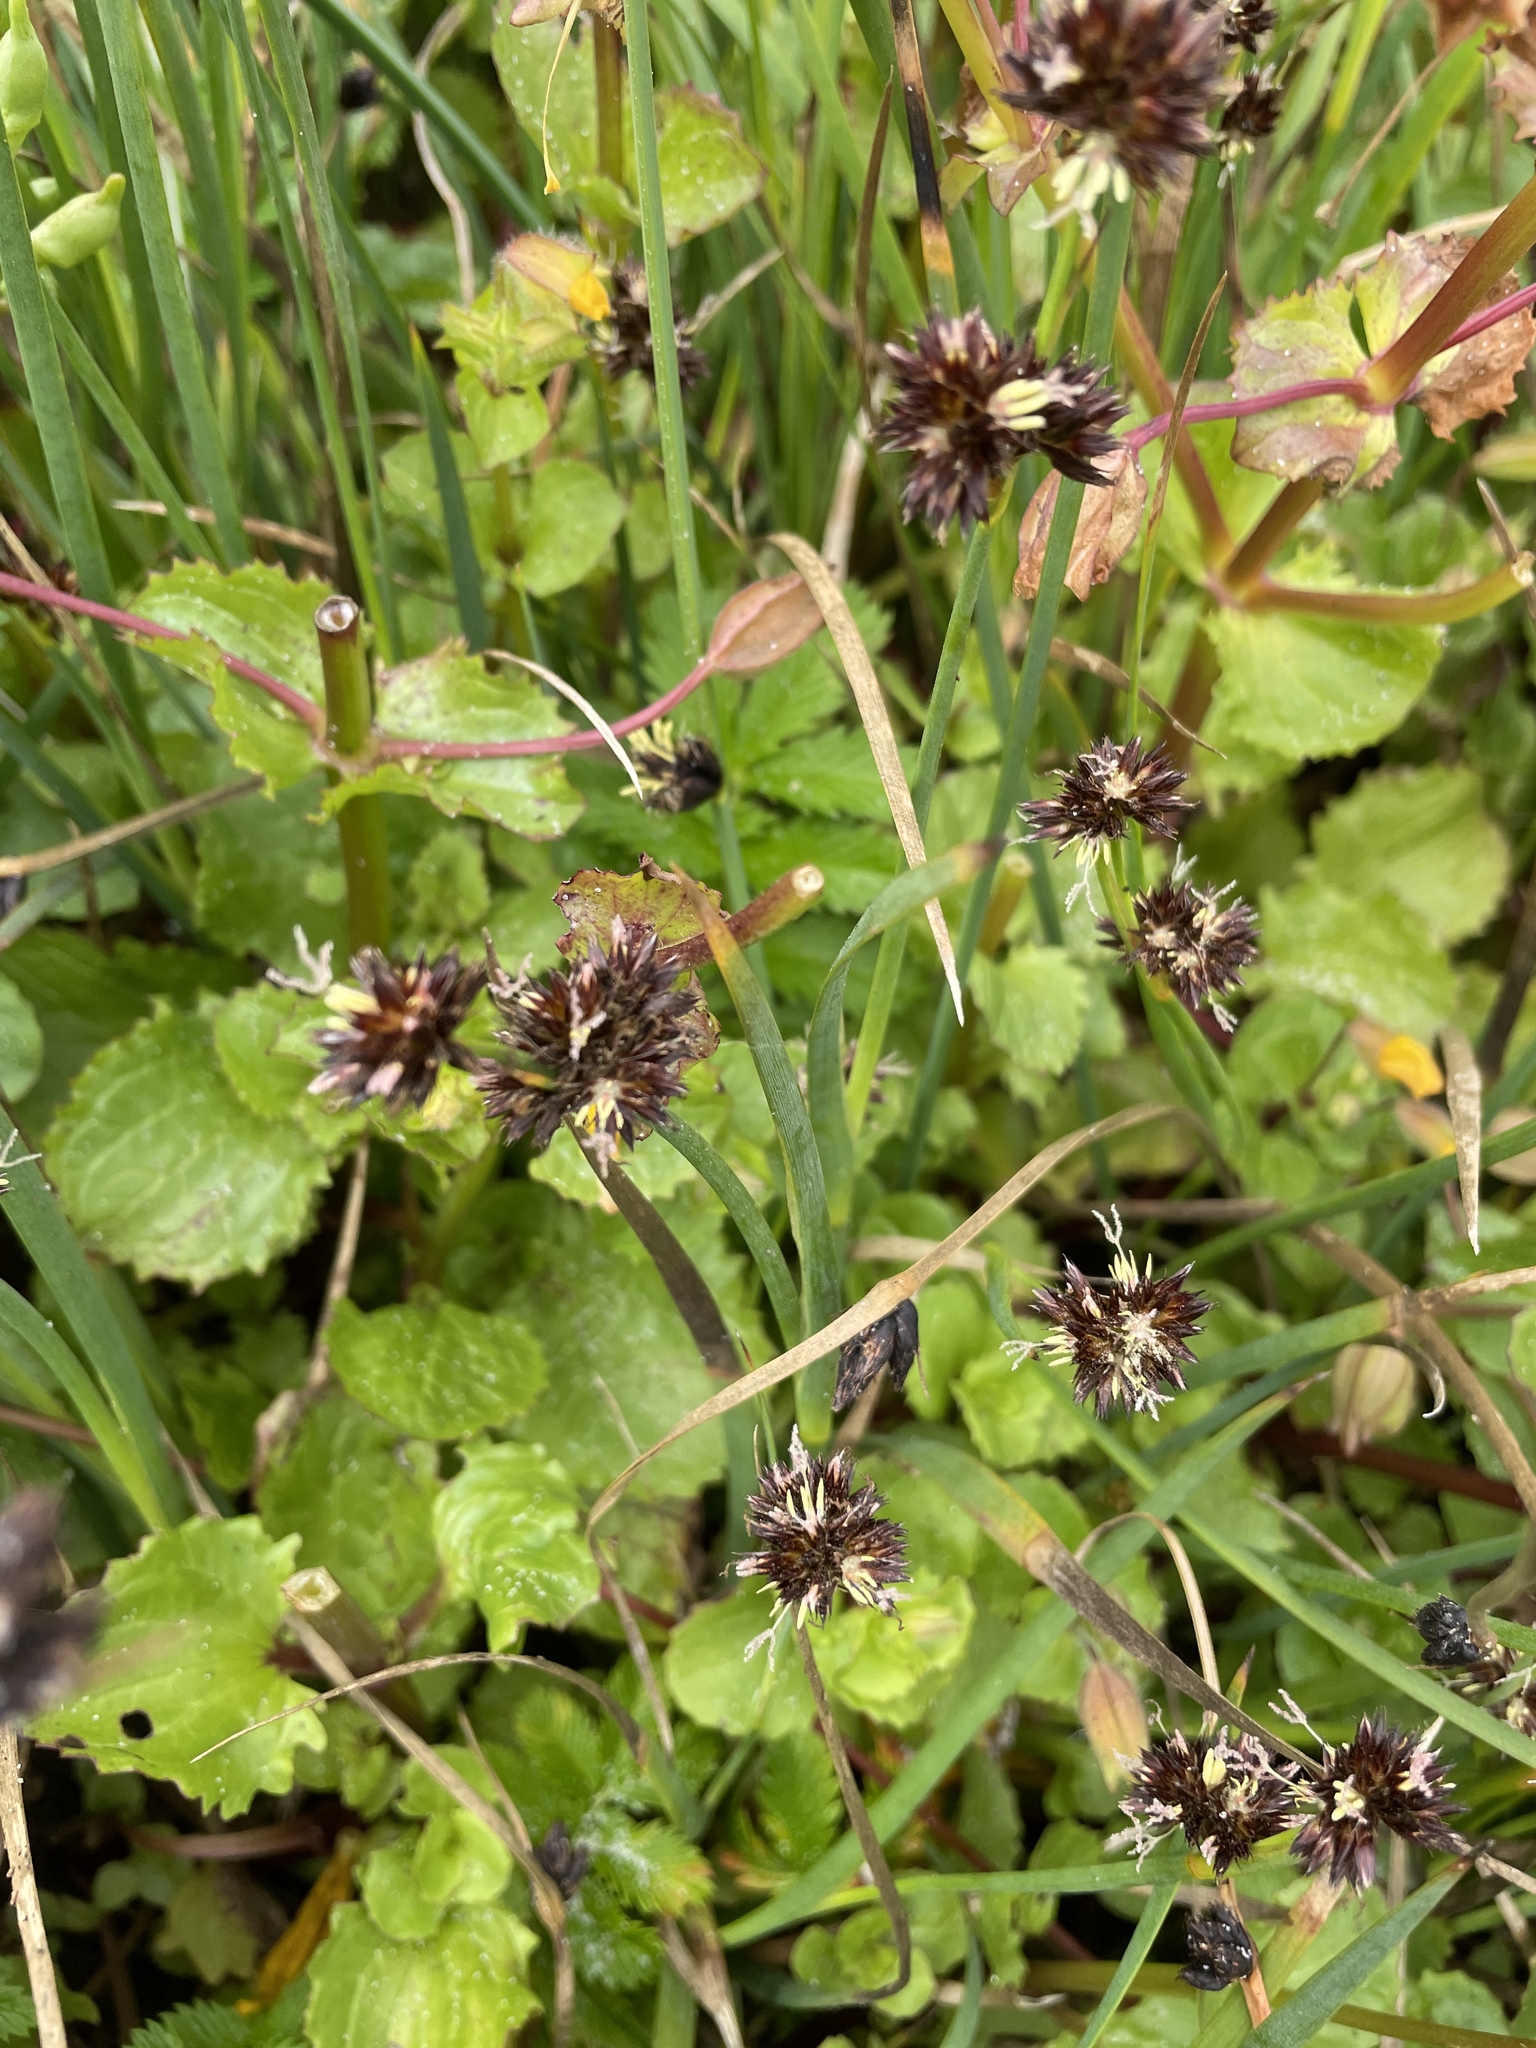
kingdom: Plantae
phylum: Tracheophyta
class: Magnoliopsida
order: Lamiales
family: Phrymaceae
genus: Erythranthe
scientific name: Erythranthe grandis
